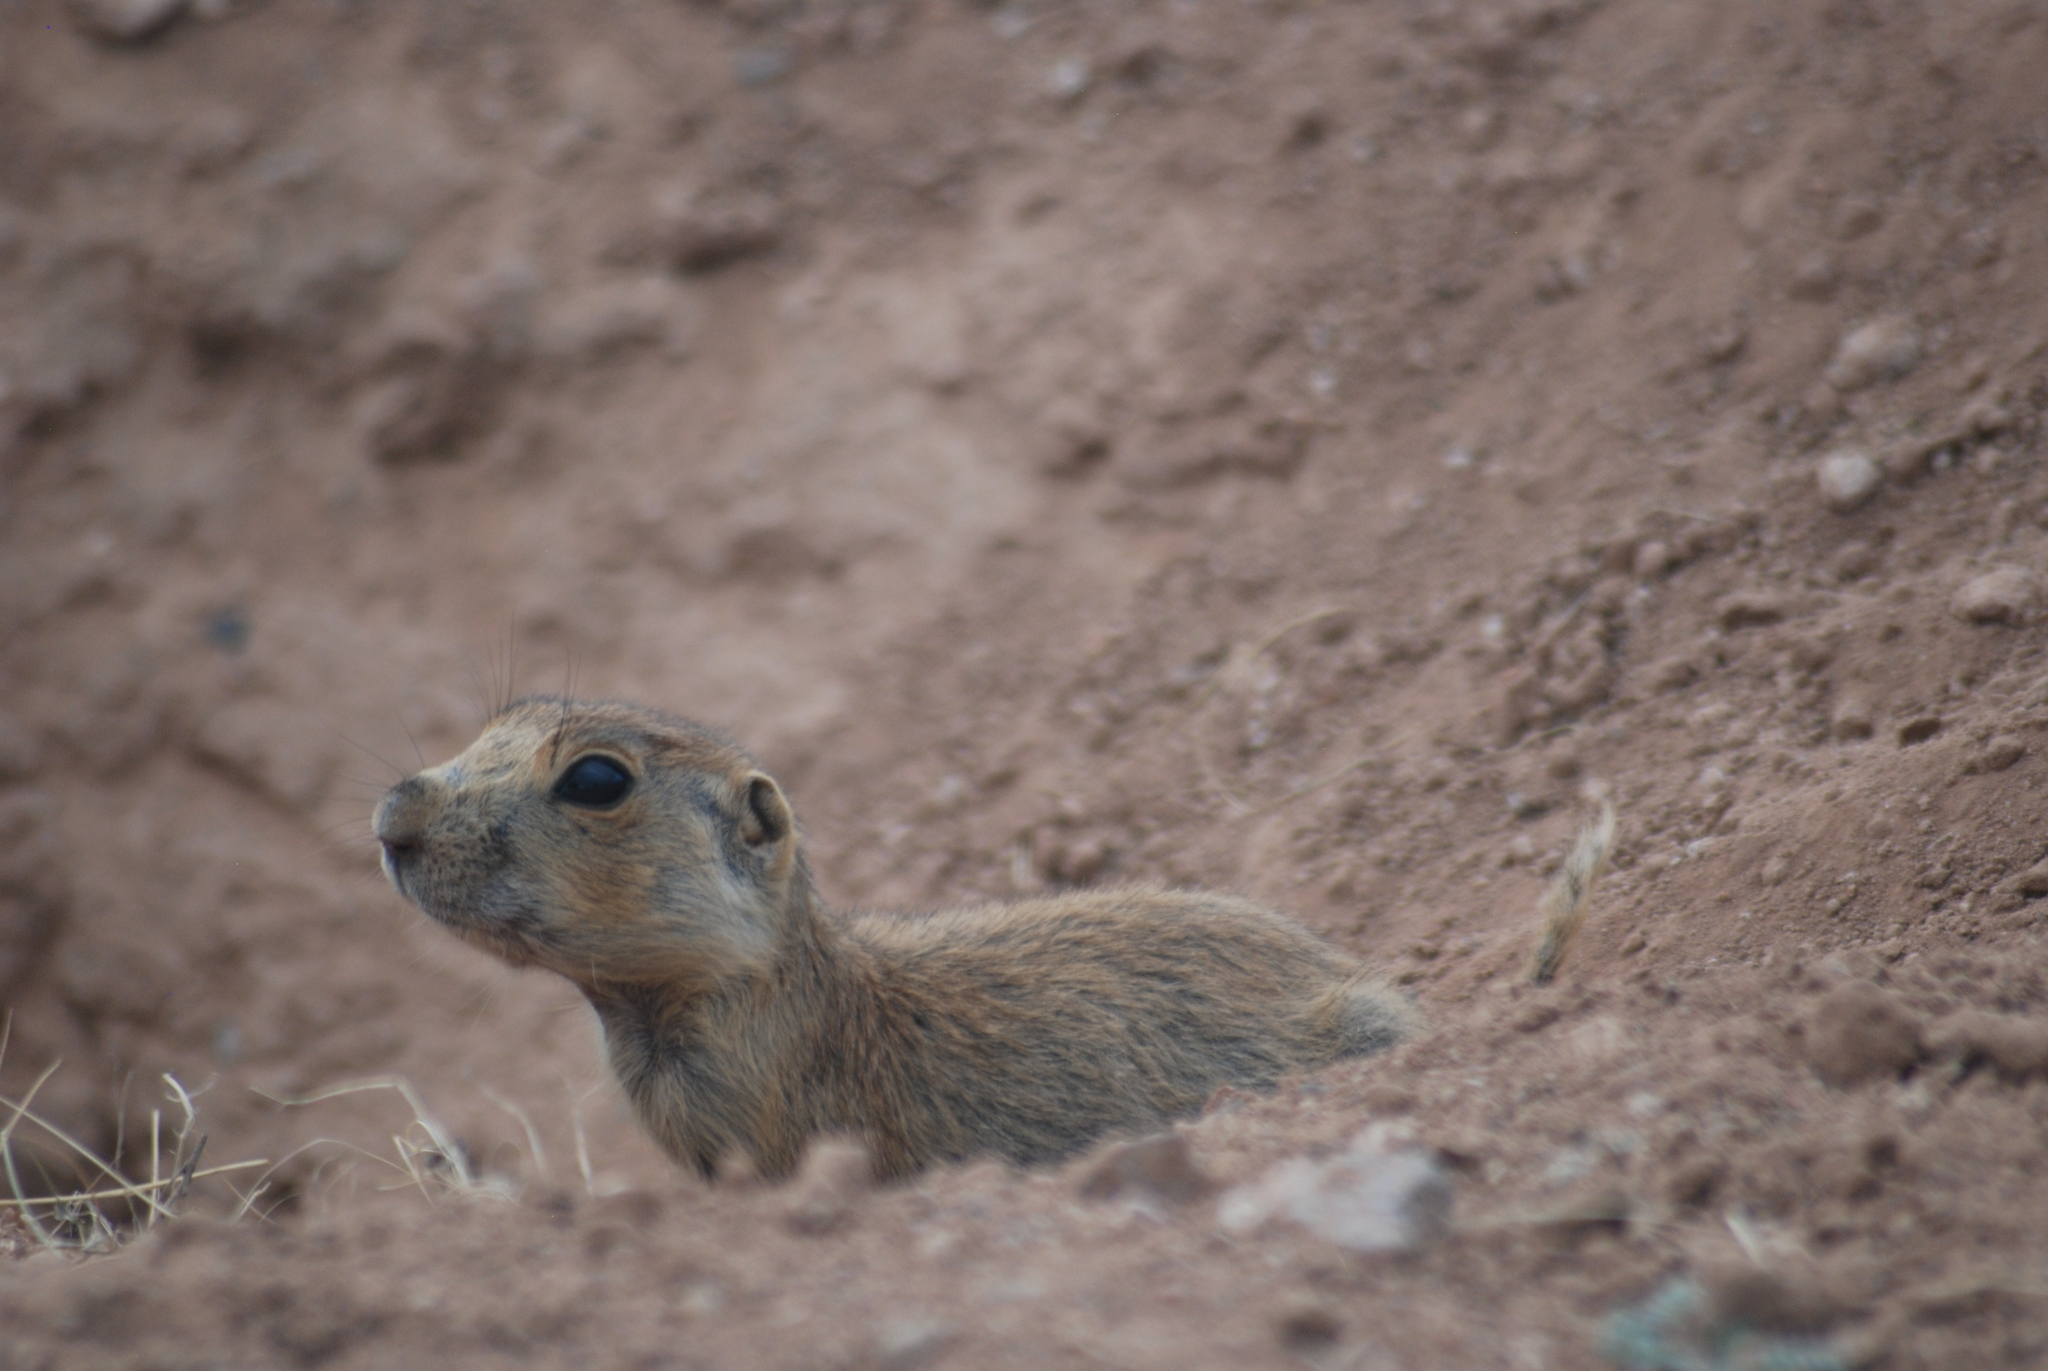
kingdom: Animalia
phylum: Chordata
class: Mammalia
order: Rodentia
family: Sciuridae
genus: Cynomys
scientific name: Cynomys gunnisoni
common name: Gunnison's prairie dog
